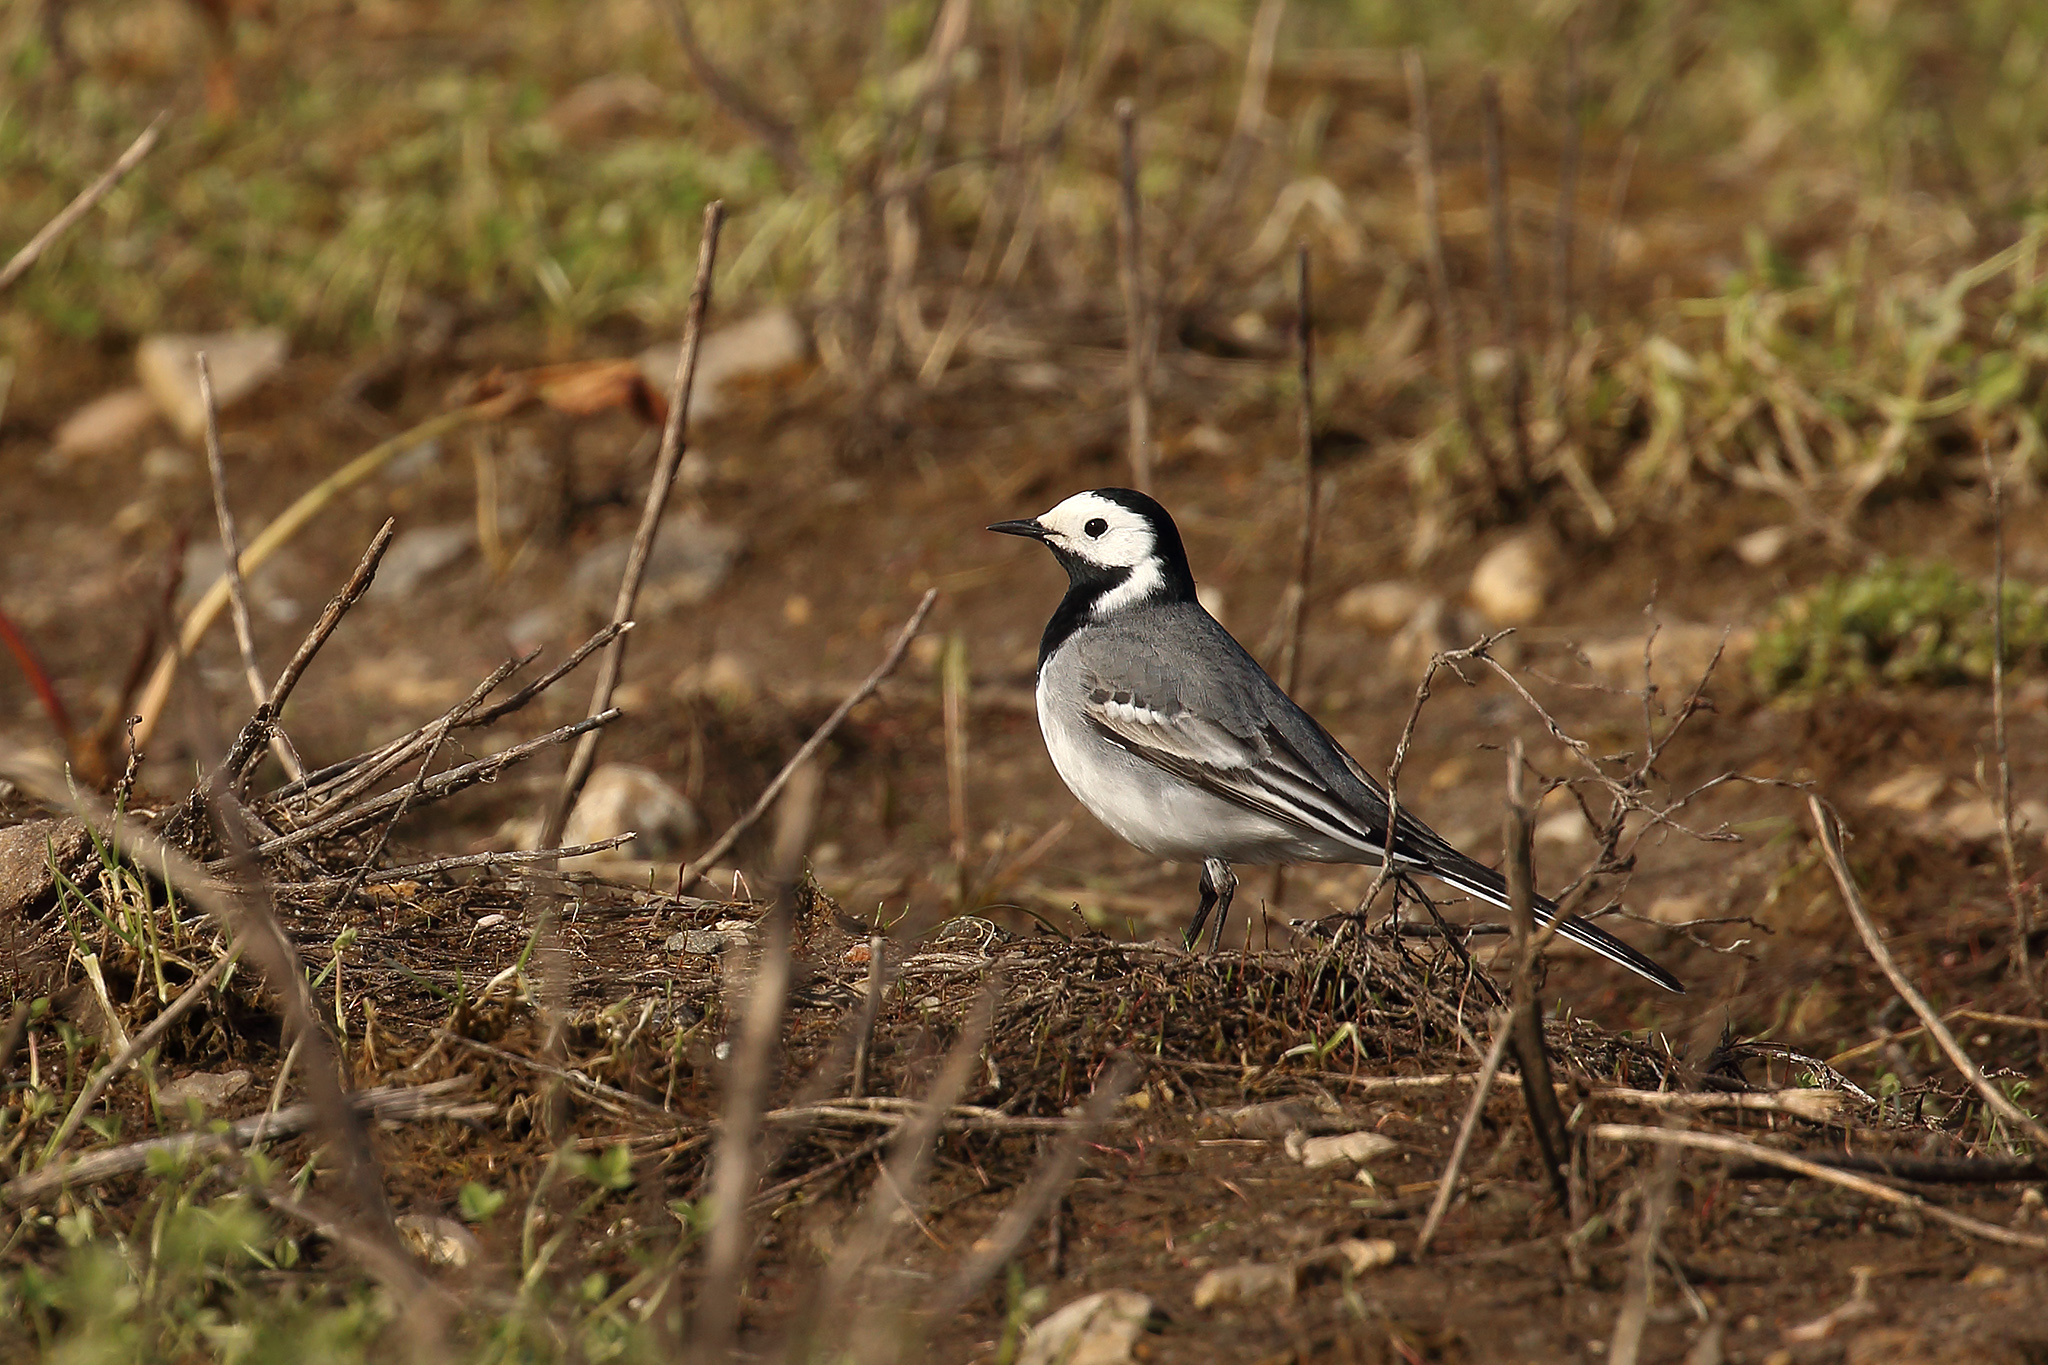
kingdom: Animalia
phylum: Chordata
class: Aves
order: Passeriformes
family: Motacillidae
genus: Motacilla
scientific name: Motacilla alba
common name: White wagtail
